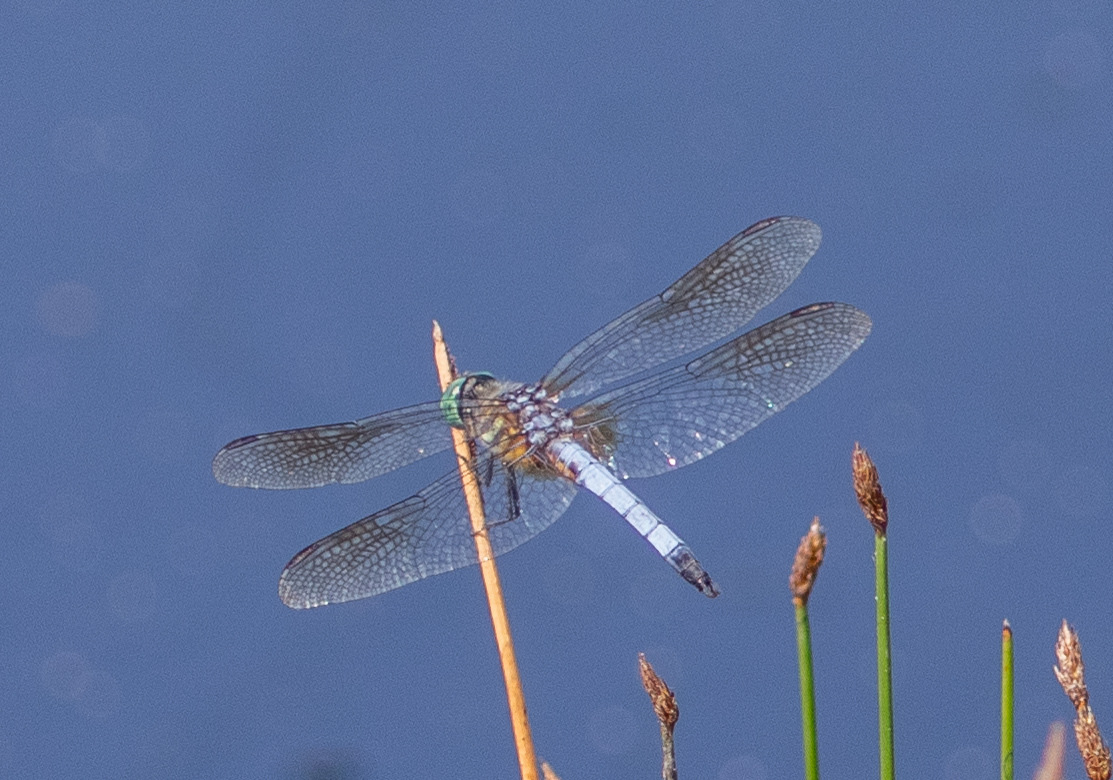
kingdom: Animalia
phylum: Arthropoda
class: Insecta
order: Odonata
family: Libellulidae
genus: Pachydiplax
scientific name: Pachydiplax longipennis
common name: Blue dasher
